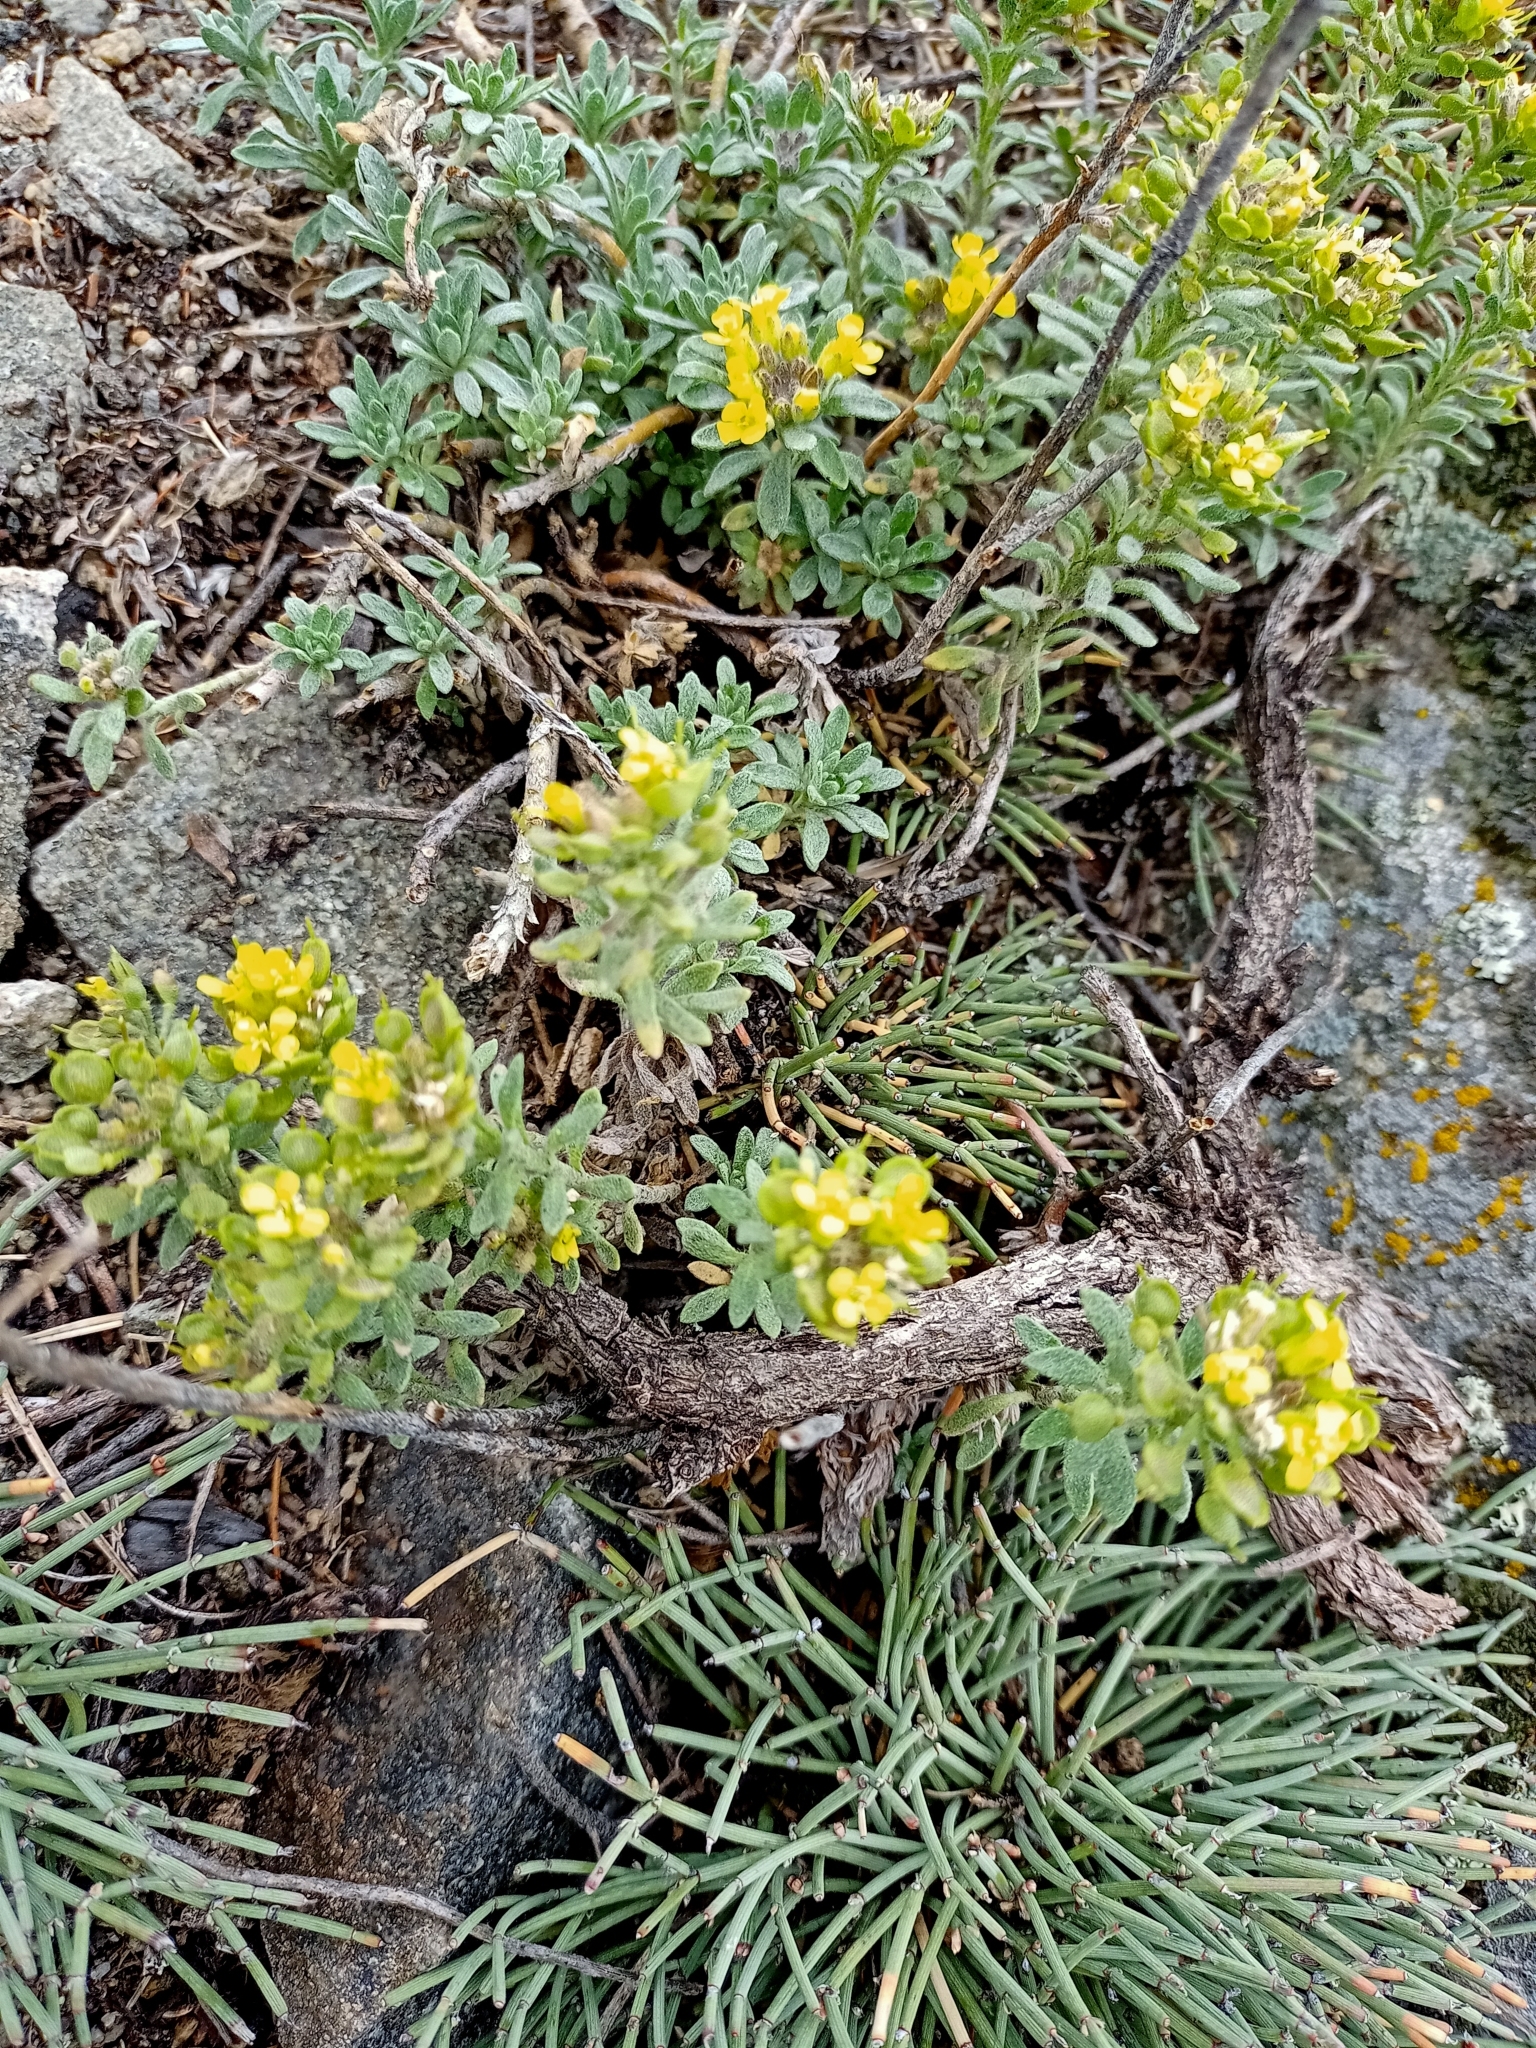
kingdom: Plantae
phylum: Tracheophyta
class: Magnoliopsida
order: Brassicales
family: Brassicaceae
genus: Odontarrhena
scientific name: Odontarrhena obovata
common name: American alyssum
